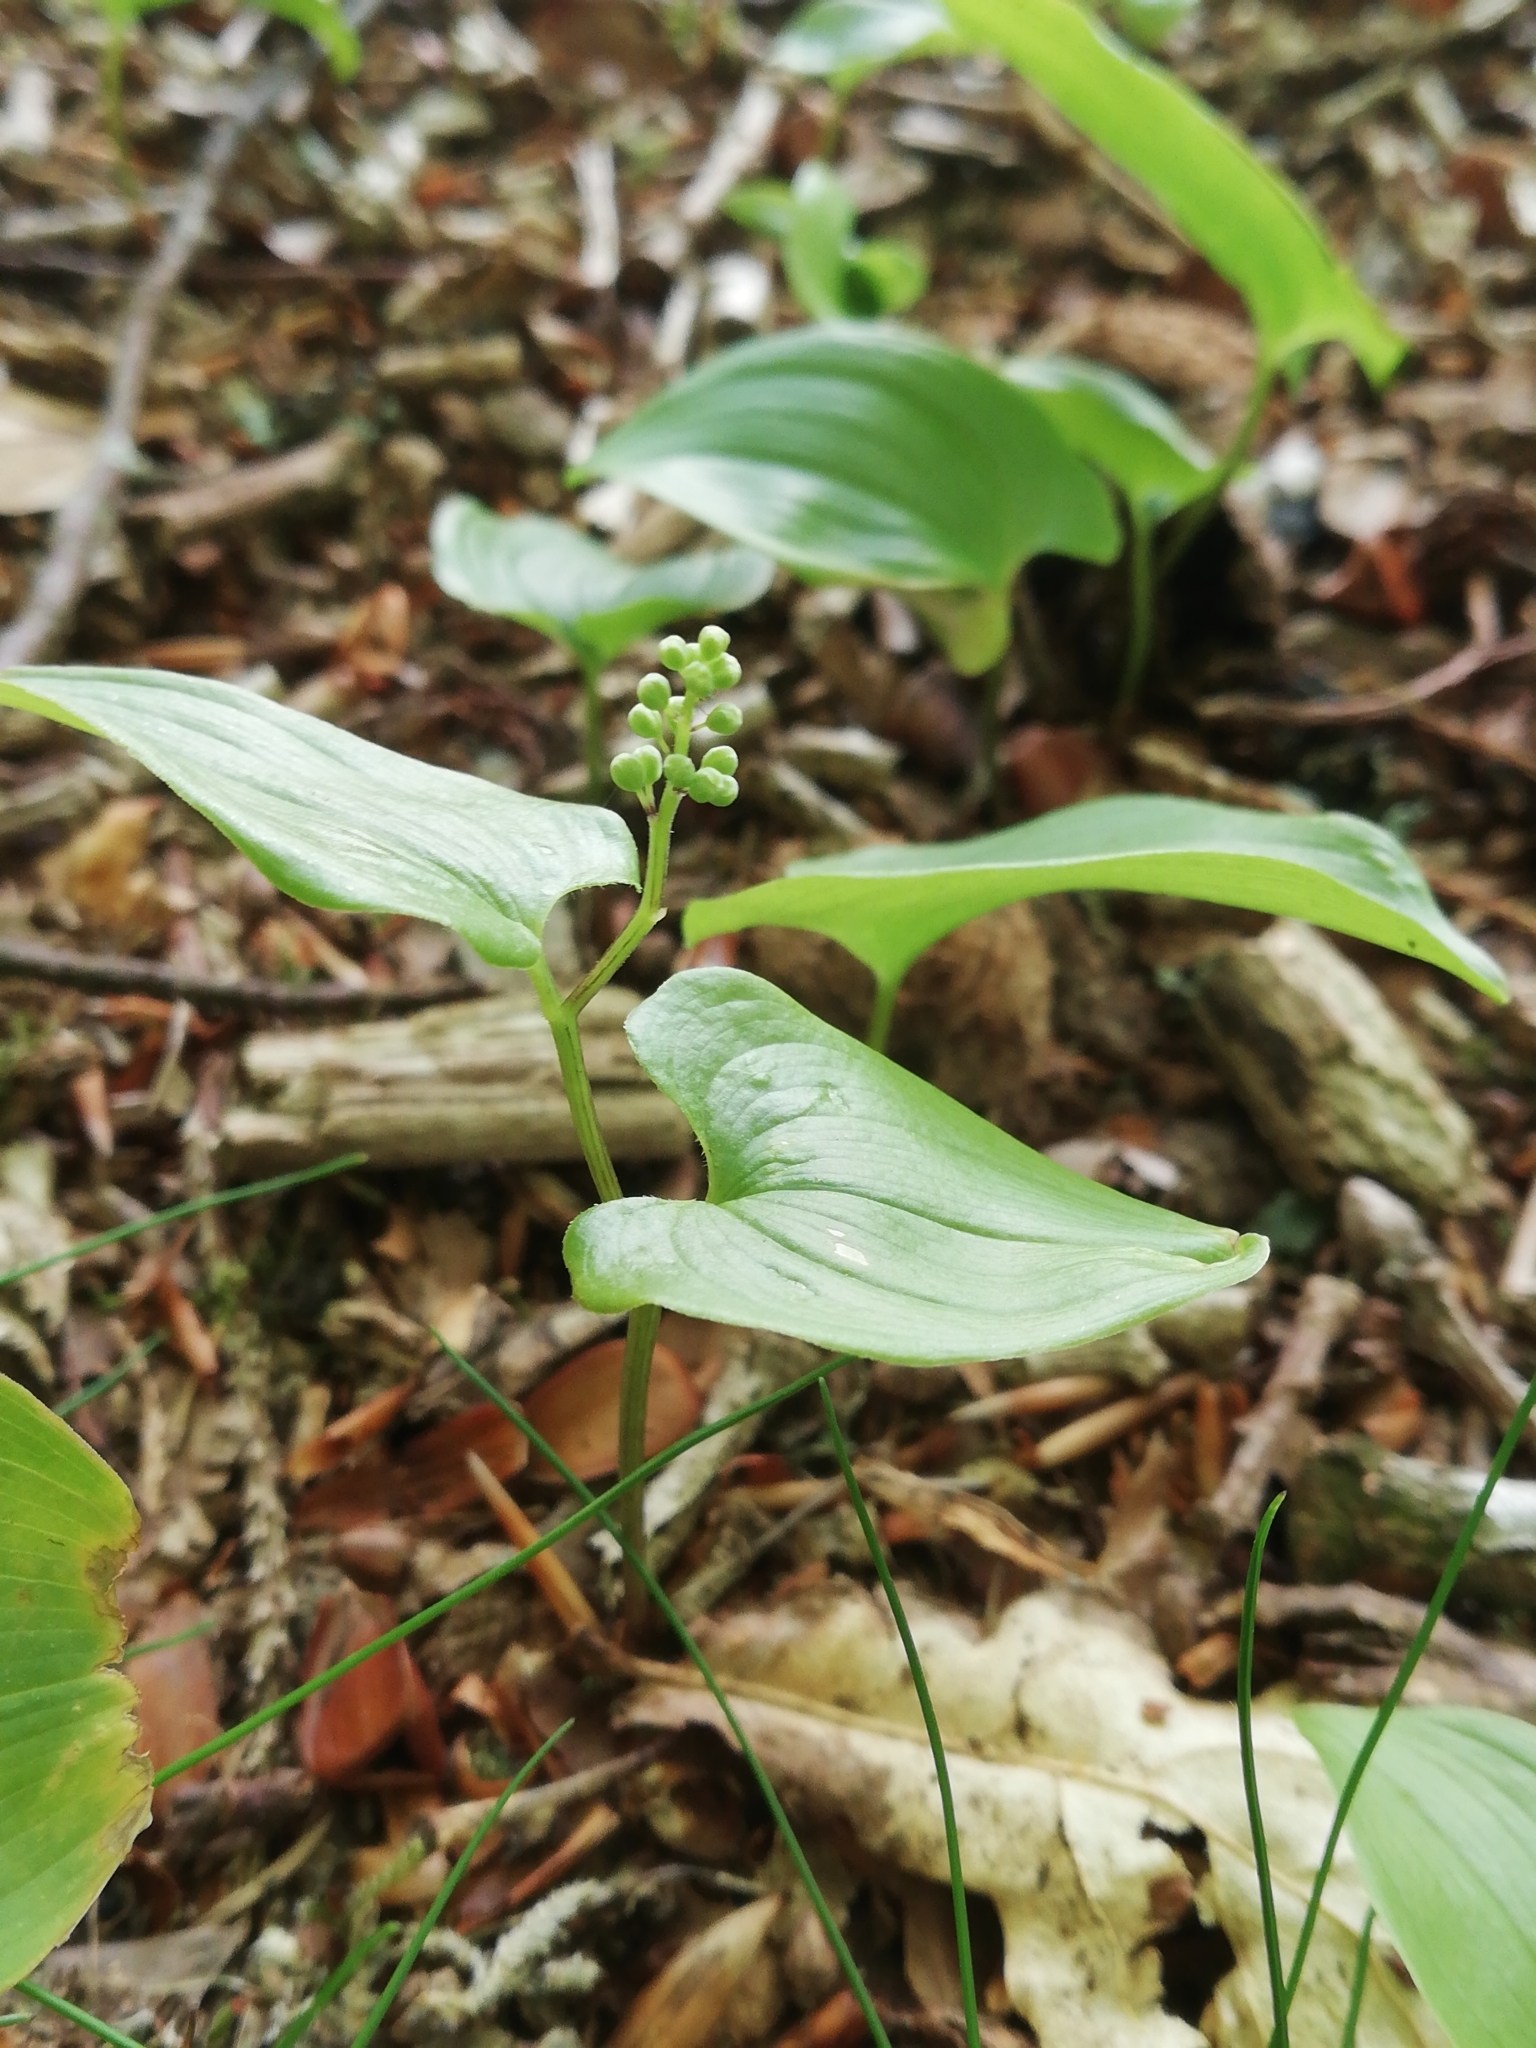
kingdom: Plantae
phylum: Tracheophyta
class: Liliopsida
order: Asparagales
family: Asparagaceae
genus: Maianthemum
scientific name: Maianthemum bifolium
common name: May lily
